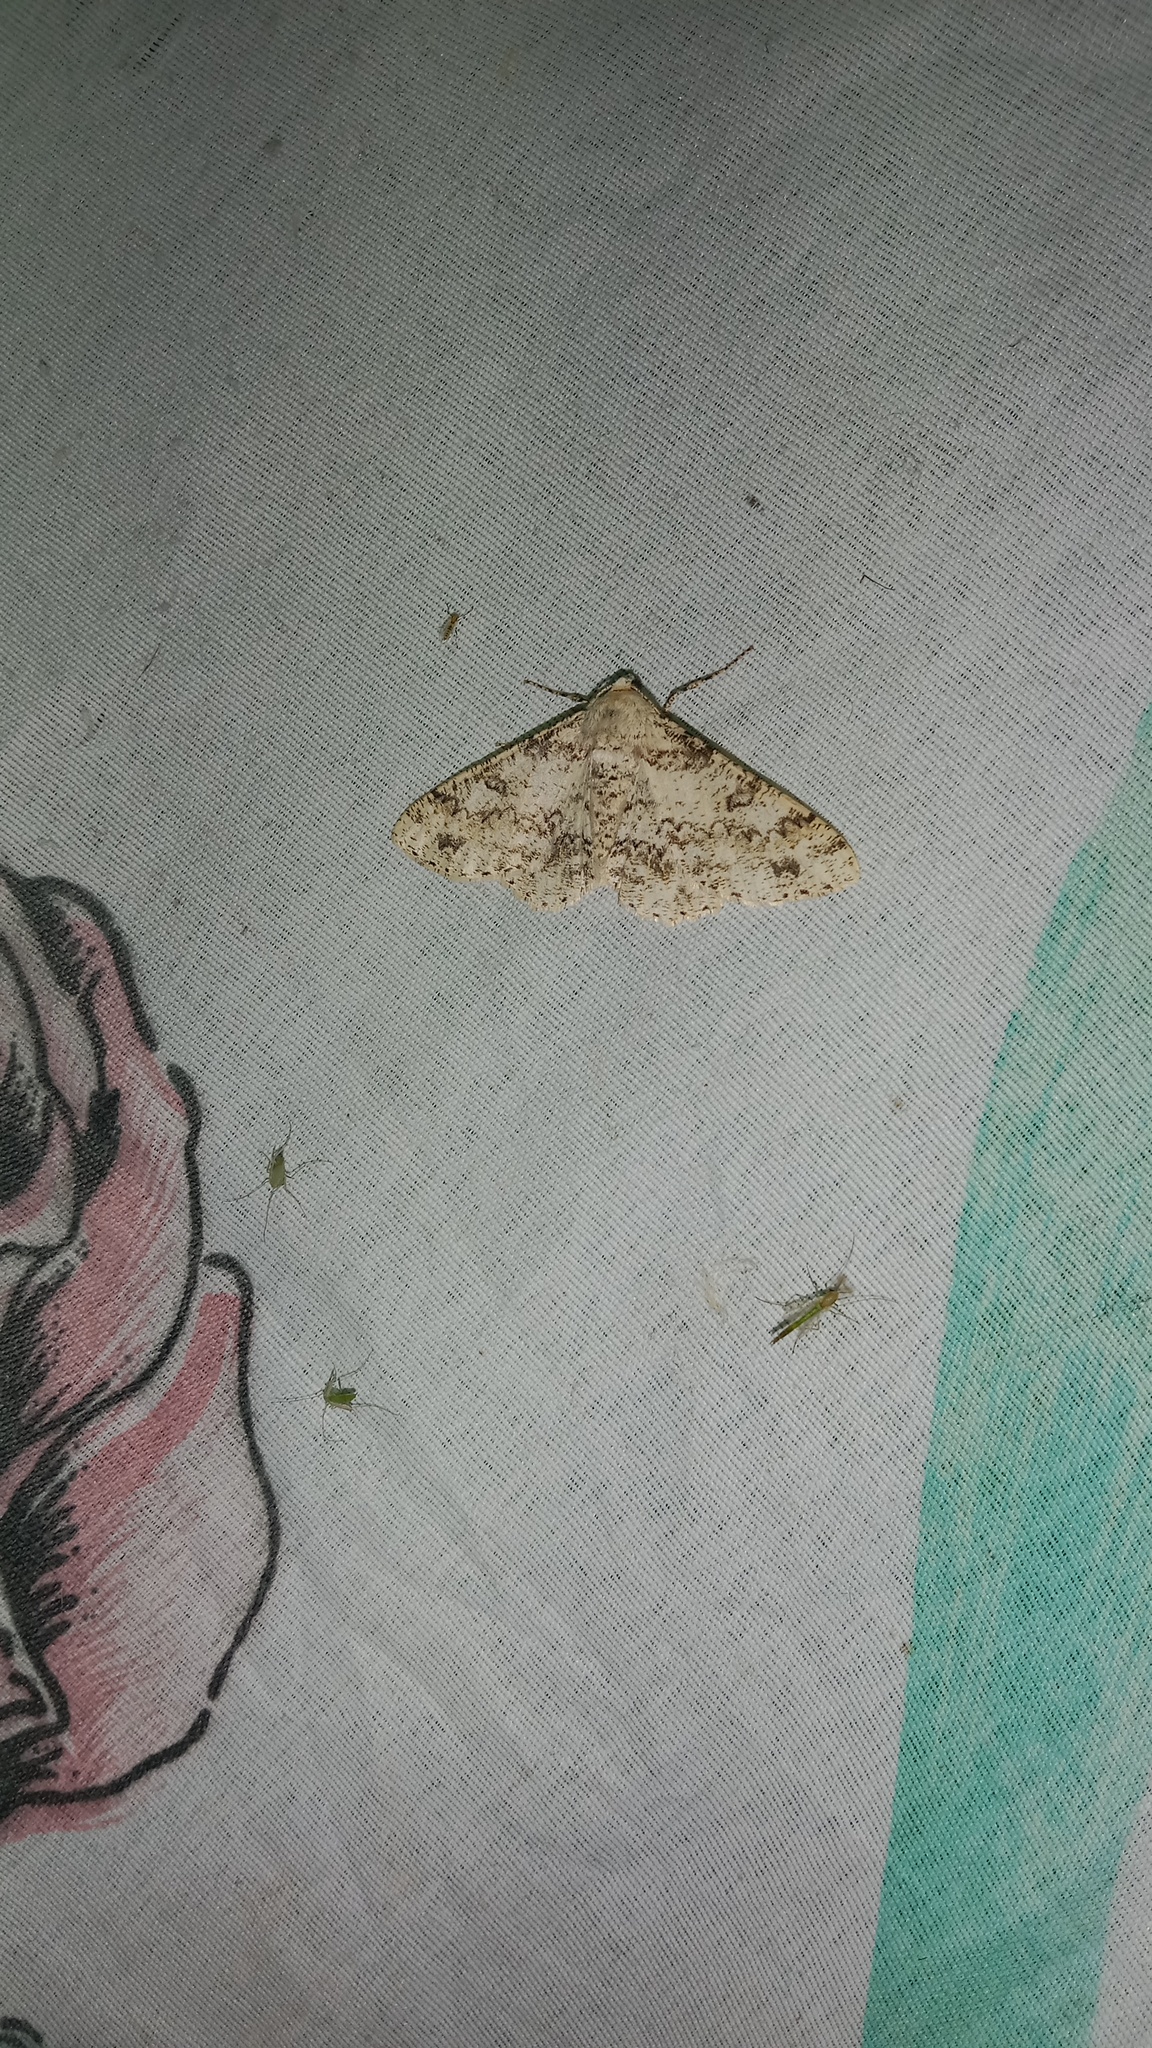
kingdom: Animalia
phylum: Arthropoda
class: Insecta
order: Lepidoptera
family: Geometridae
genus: Ascotis
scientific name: Ascotis selenaria
